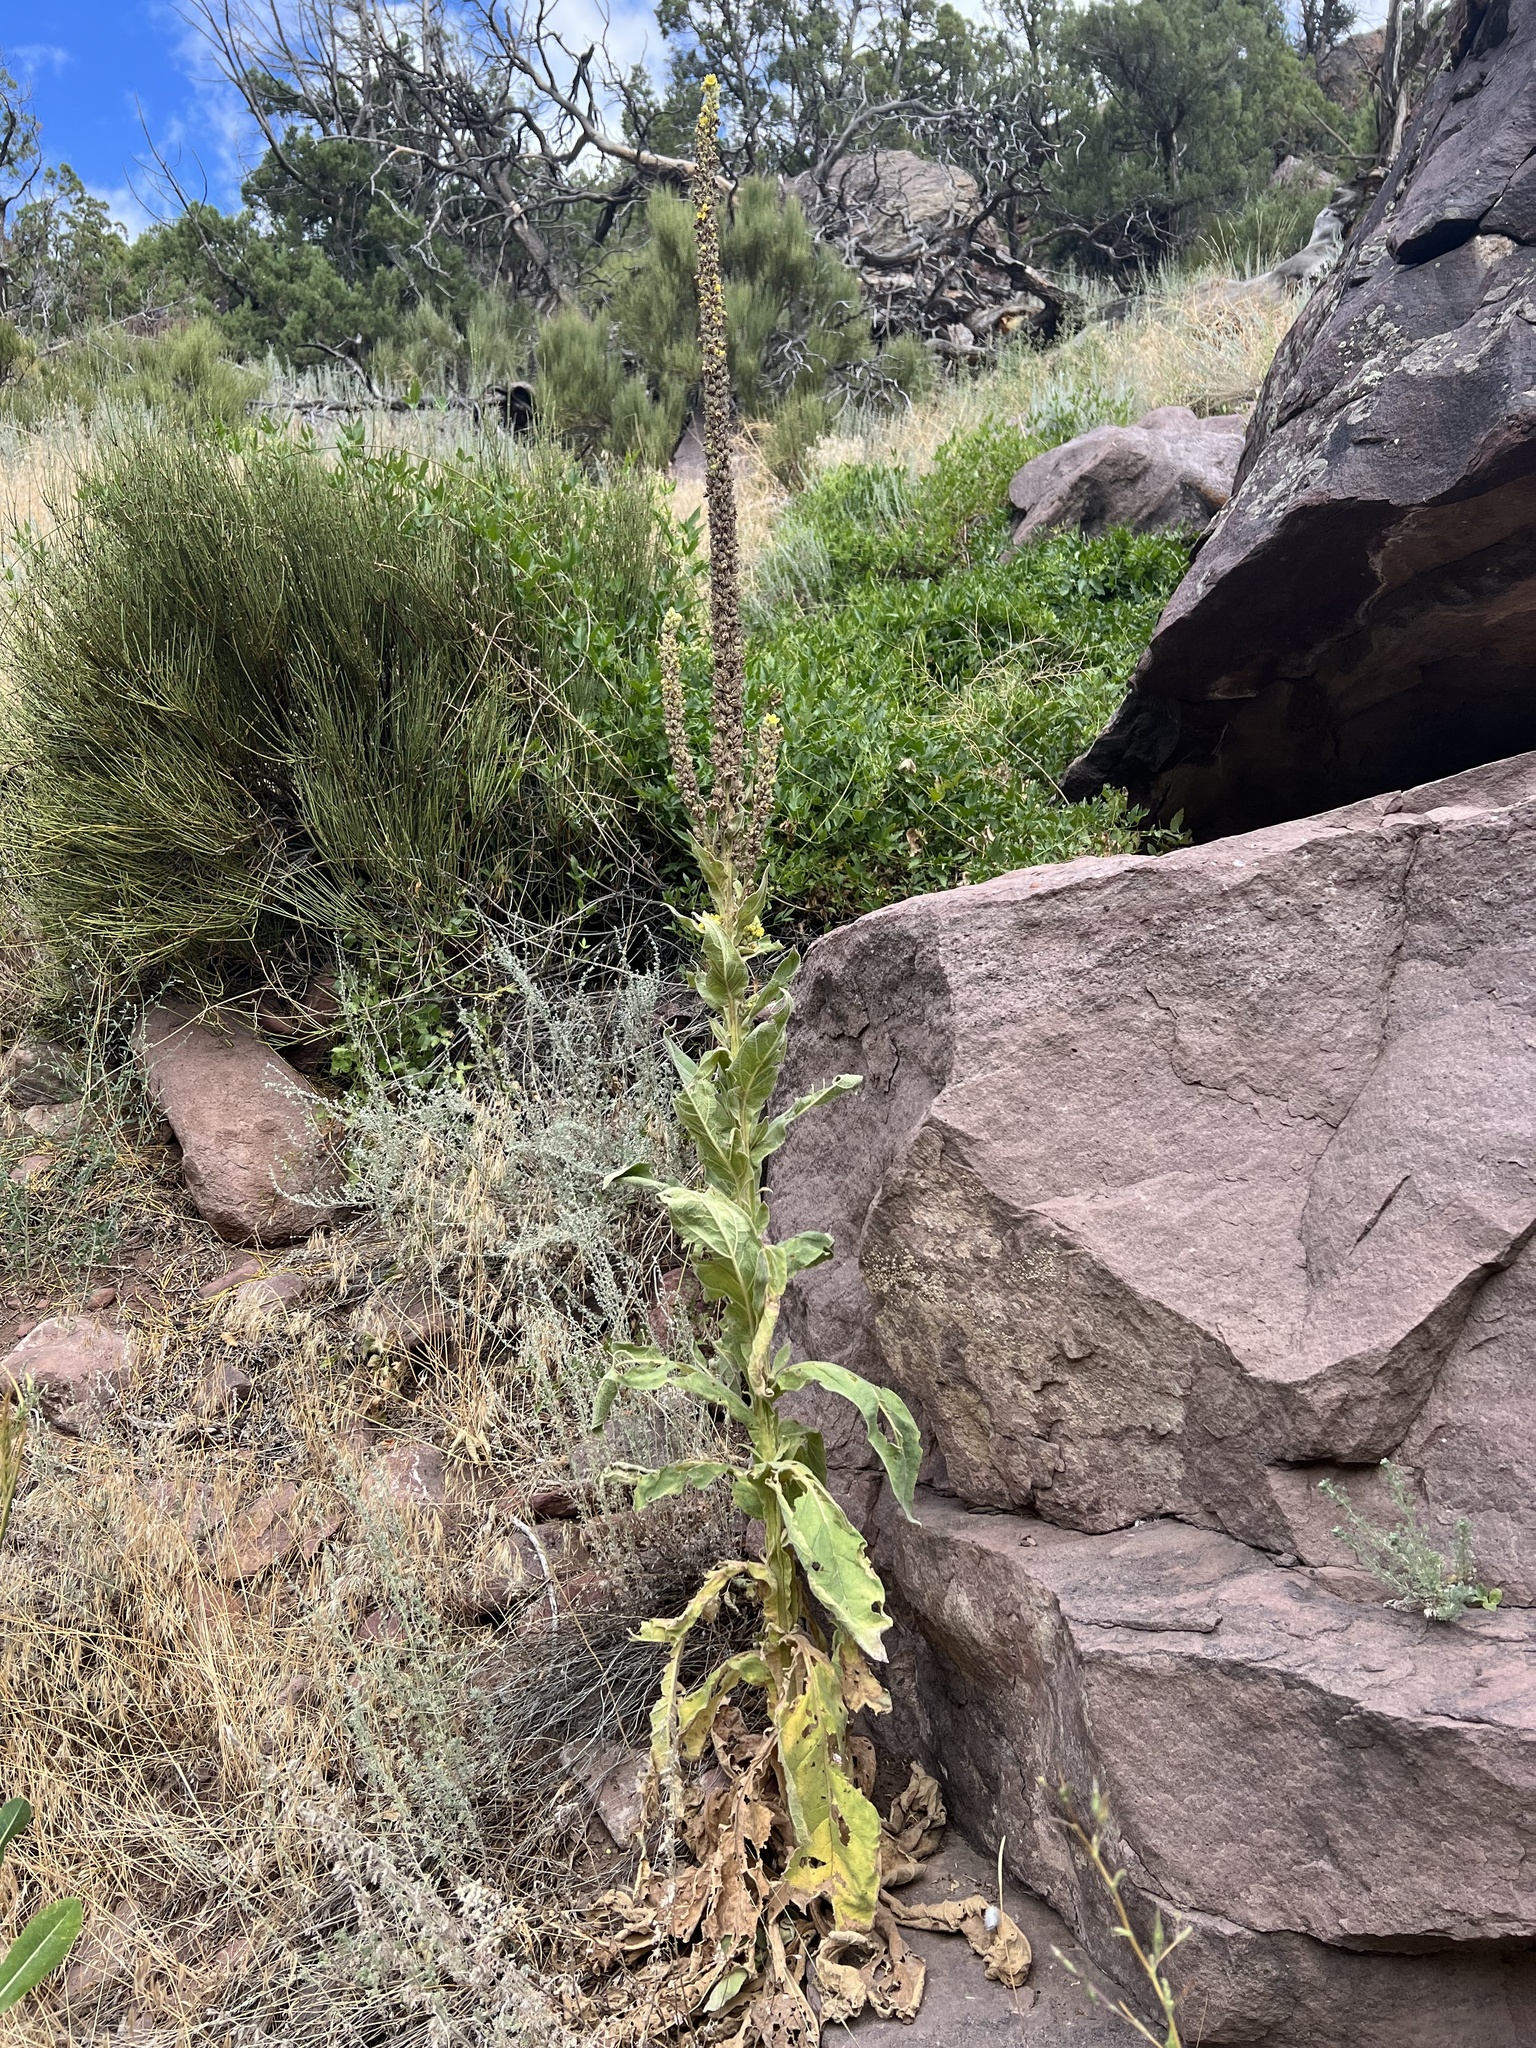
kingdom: Plantae
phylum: Tracheophyta
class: Magnoliopsida
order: Lamiales
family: Scrophulariaceae
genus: Verbascum
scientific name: Verbascum thapsus
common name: Common mullein
